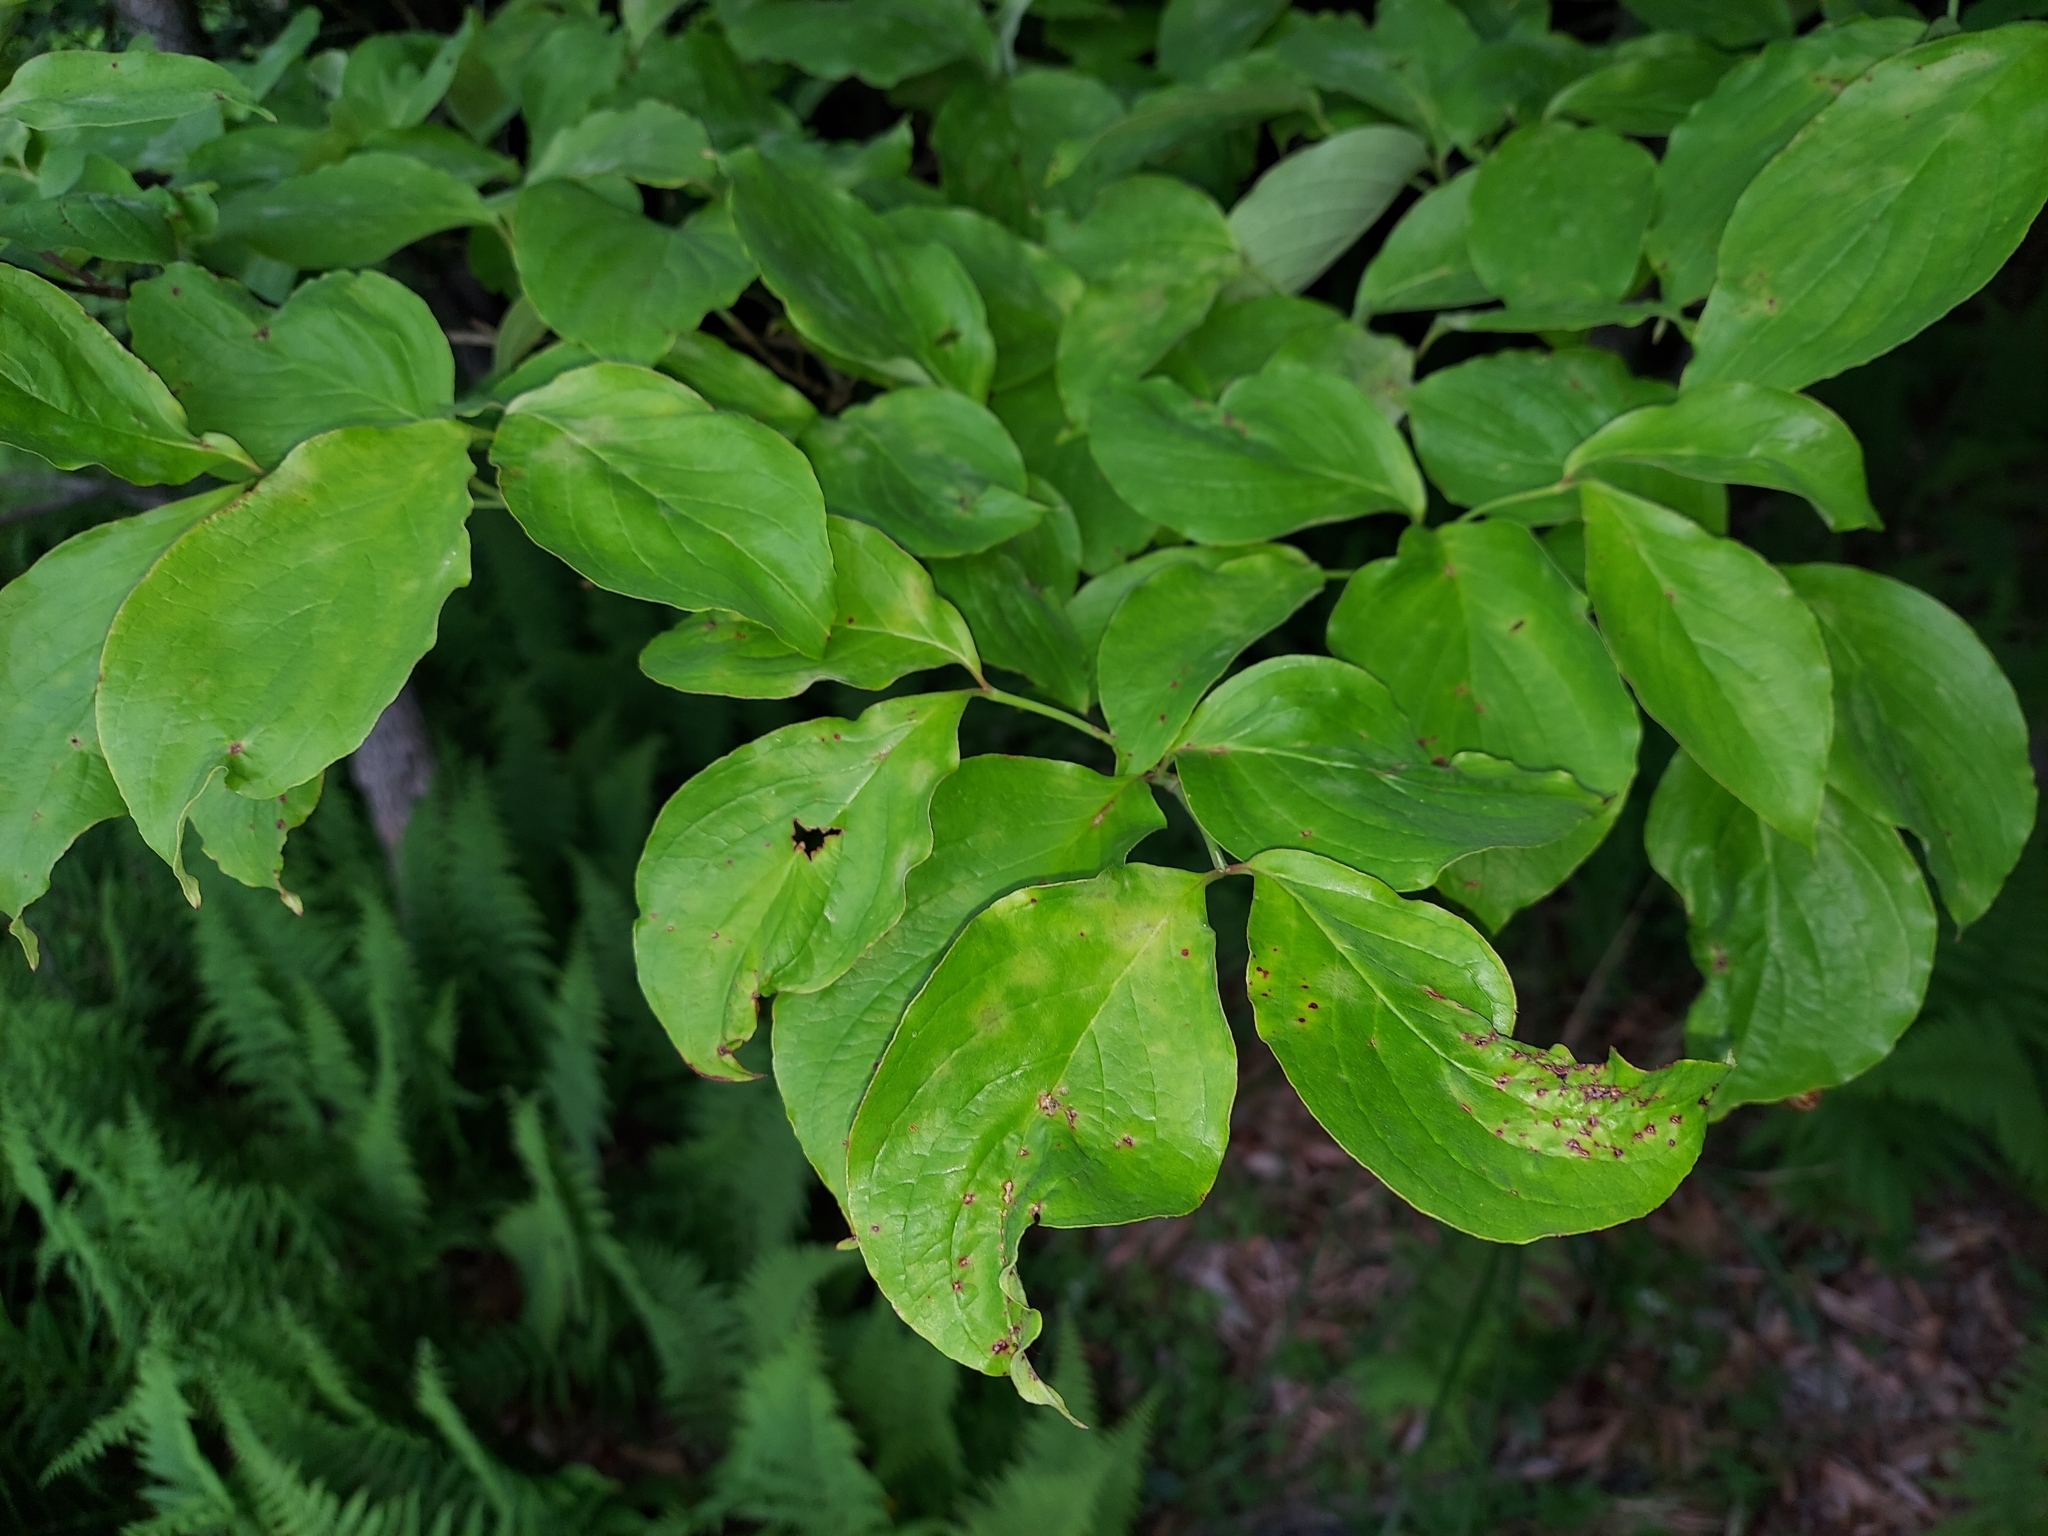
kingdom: Plantae
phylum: Tracheophyta
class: Magnoliopsida
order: Cornales
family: Cornaceae
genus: Cornus
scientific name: Cornus florida
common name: Flowering dogwood
